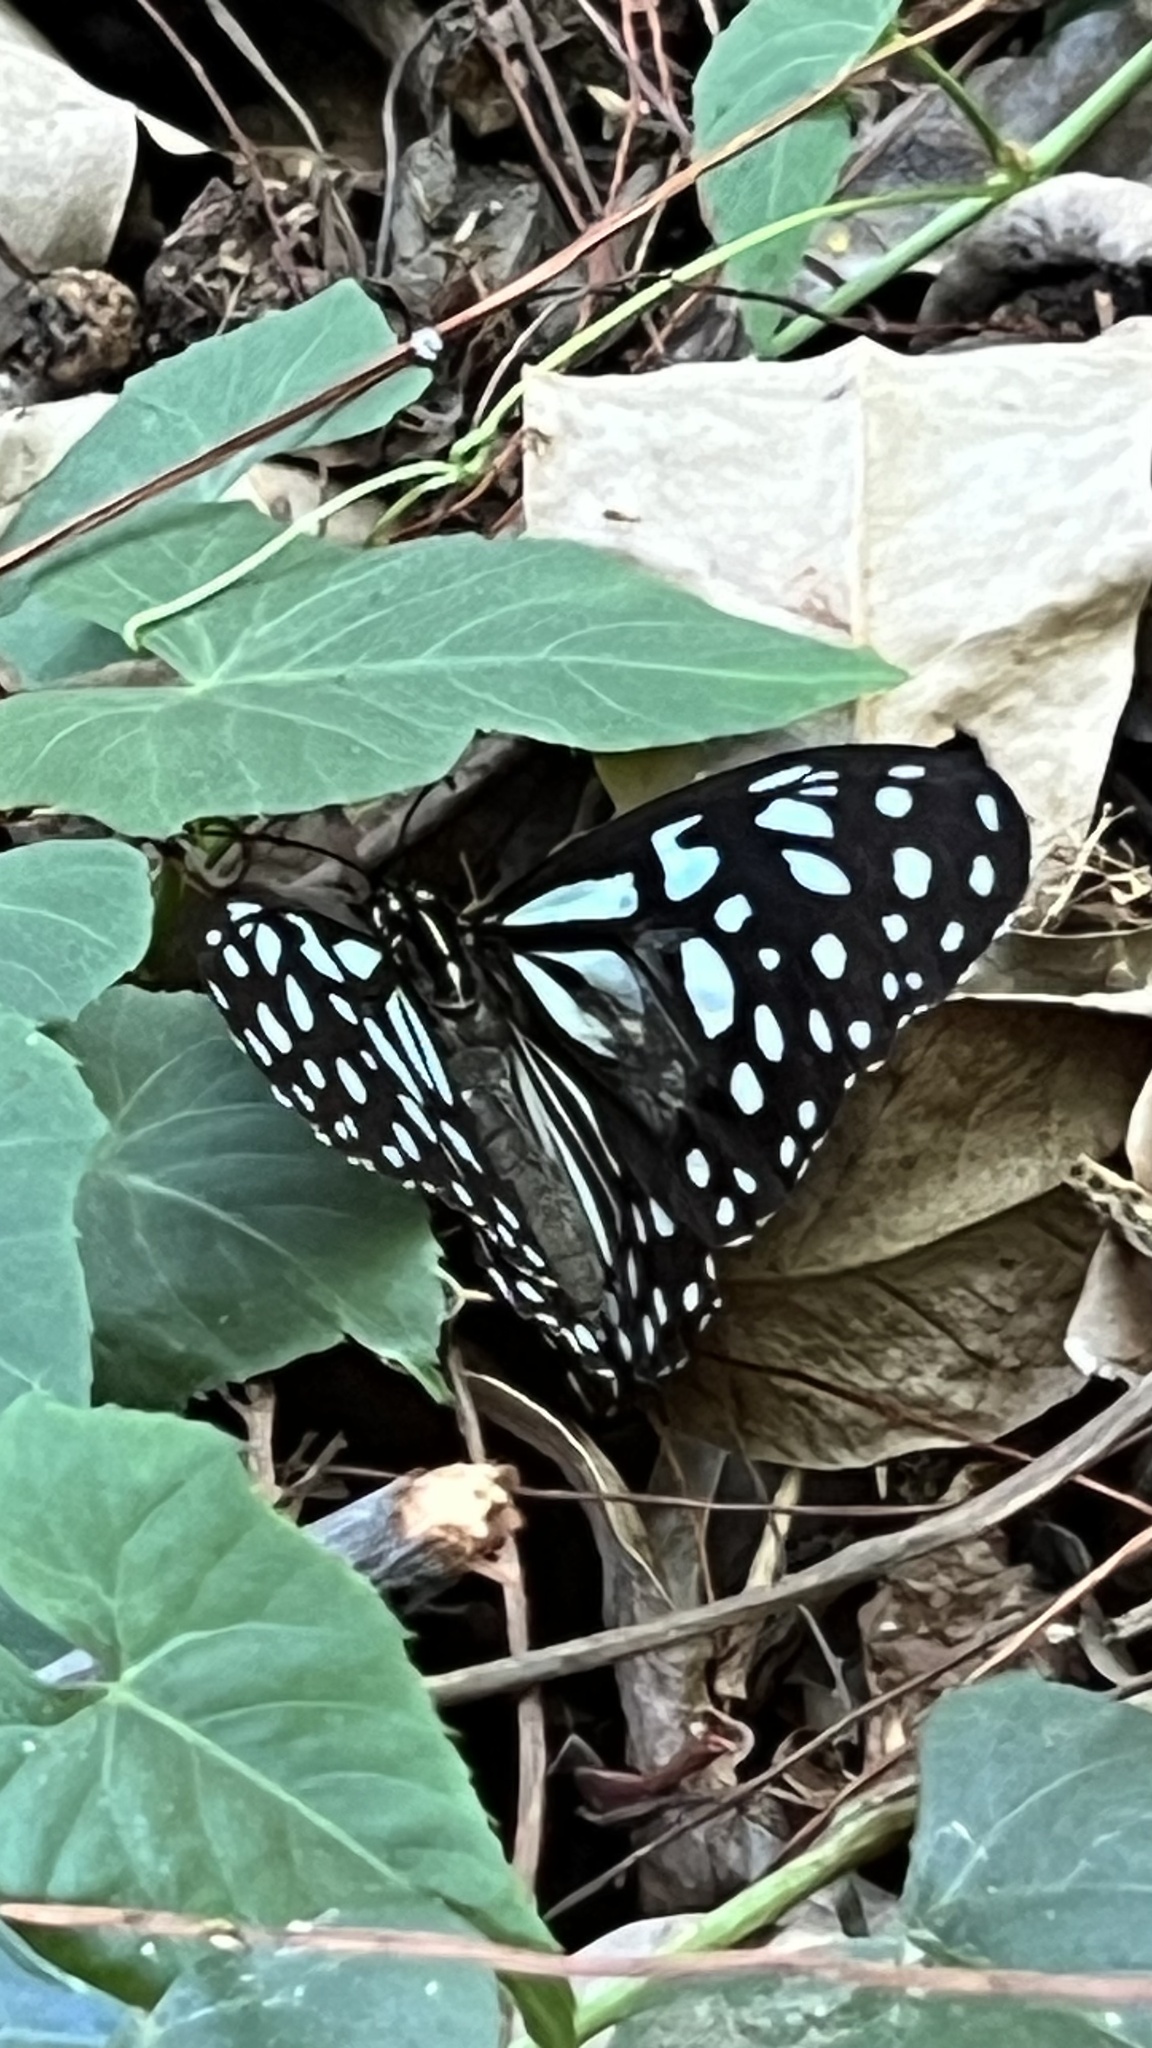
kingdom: Animalia
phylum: Arthropoda
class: Insecta
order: Lepidoptera
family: Nymphalidae
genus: Tirumala
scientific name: Tirumala limniace
